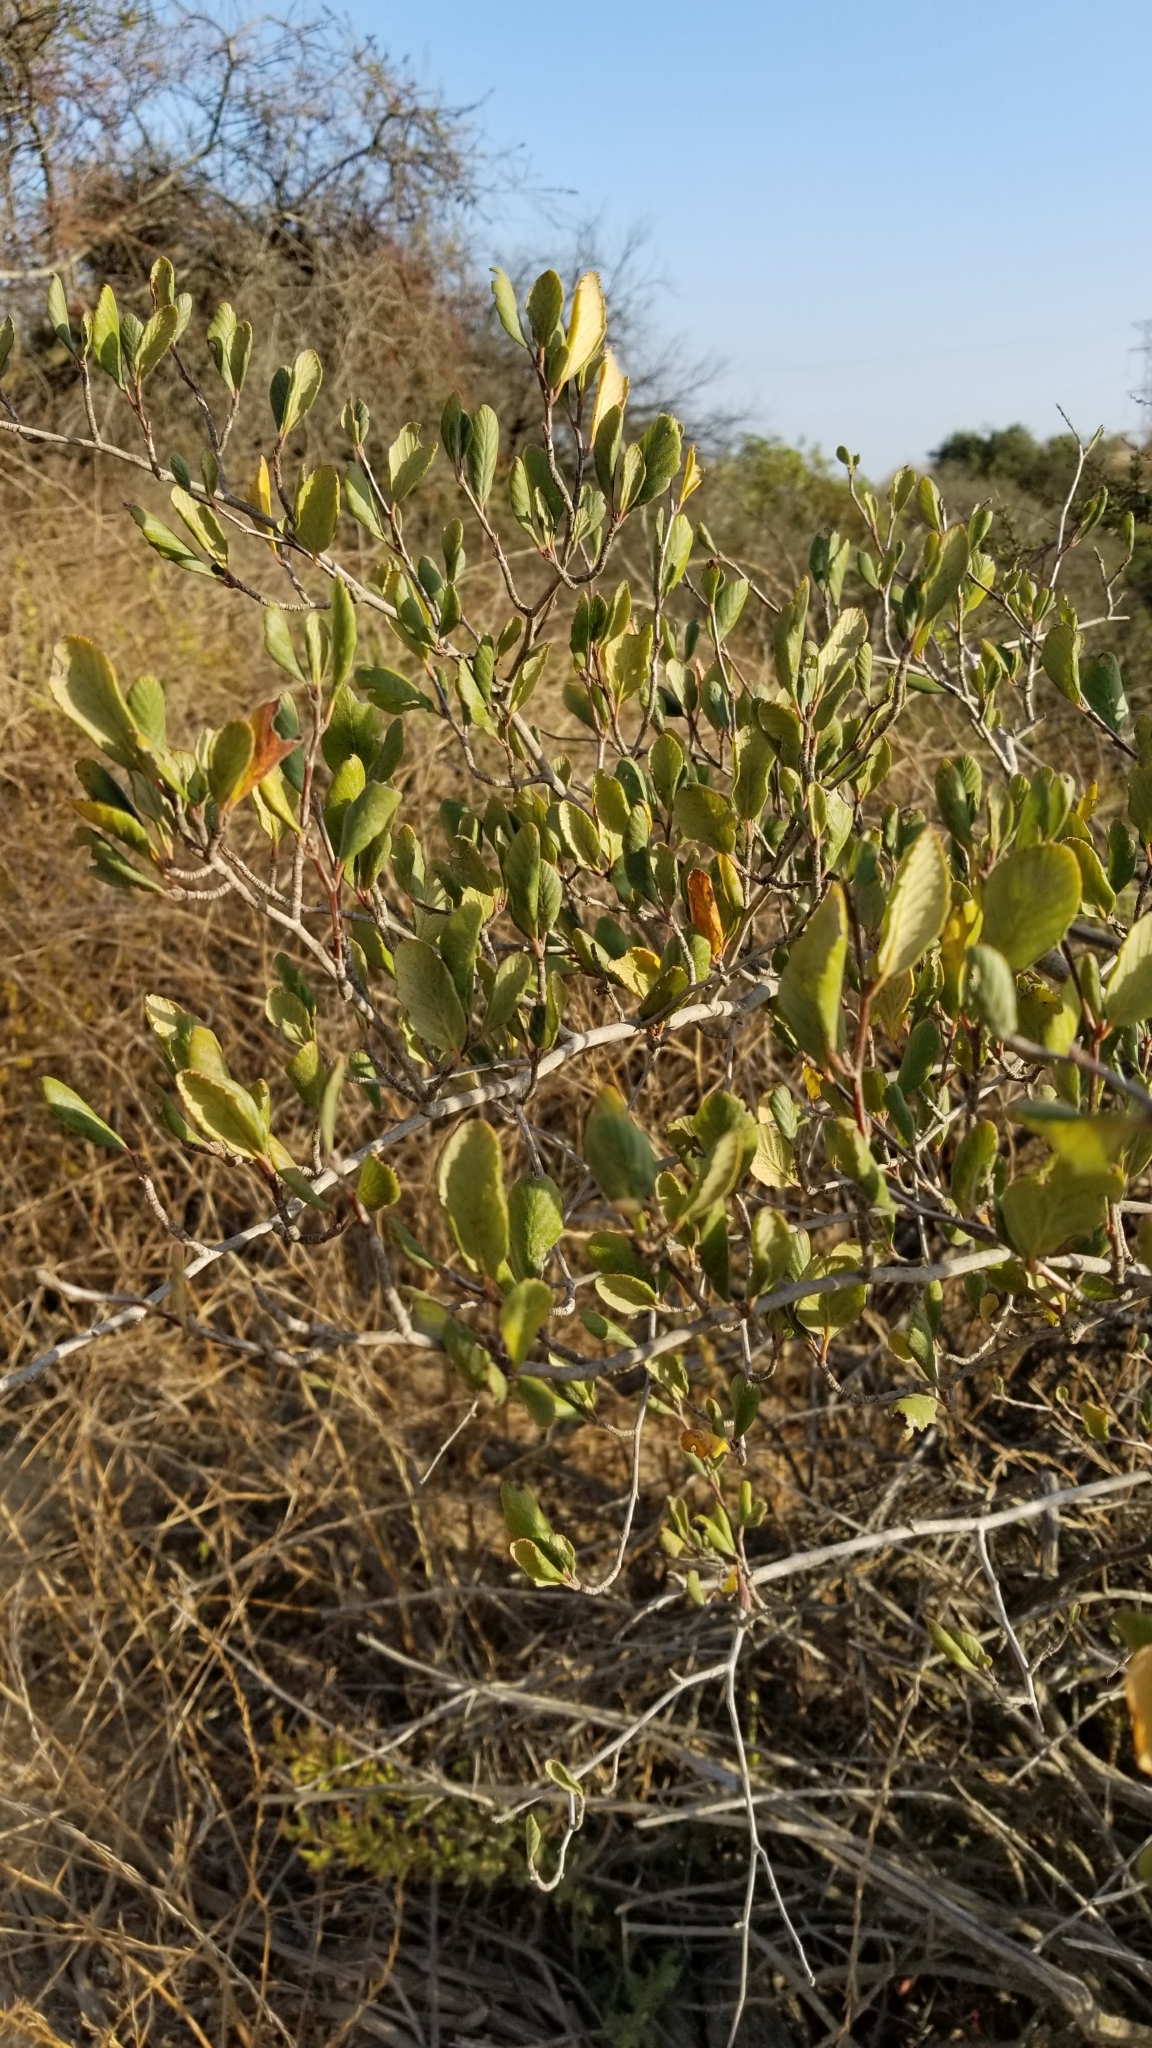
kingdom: Plantae
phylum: Tracheophyta
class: Magnoliopsida
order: Rosales
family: Rosaceae
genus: Cercocarpus
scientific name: Cercocarpus betuloides
